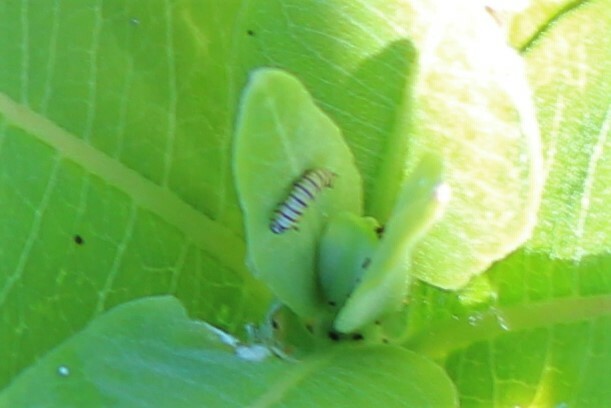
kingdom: Animalia
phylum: Arthropoda
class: Insecta
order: Lepidoptera
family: Nymphalidae
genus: Danaus
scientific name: Danaus plexippus
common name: Monarch
